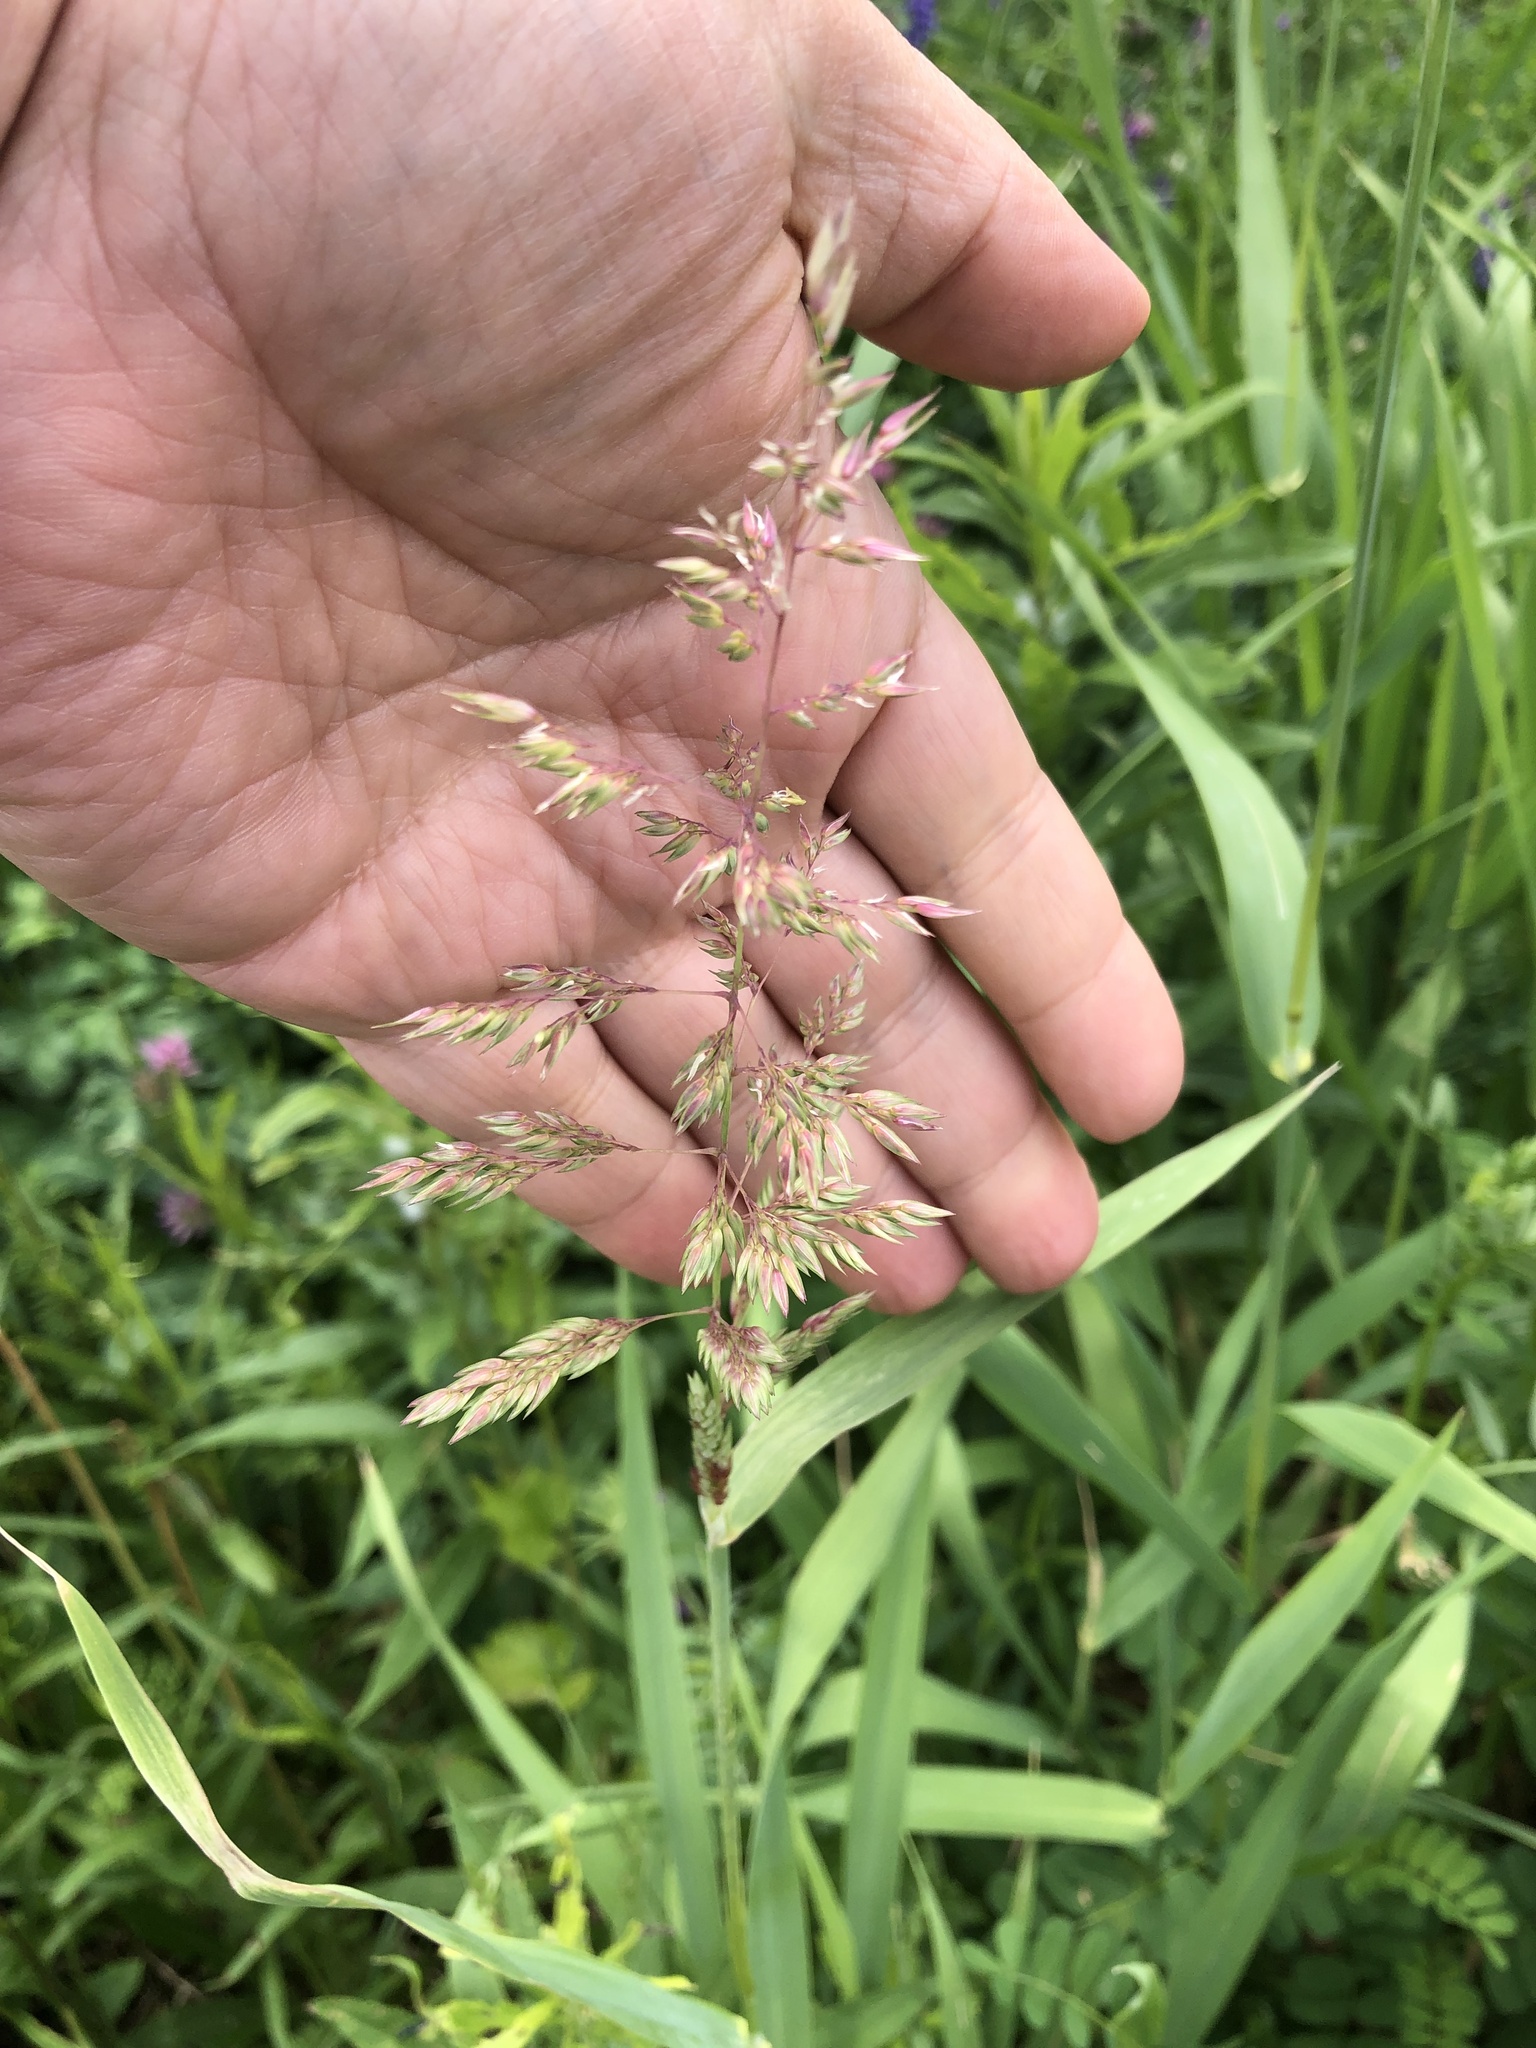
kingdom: Plantae
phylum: Tracheophyta
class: Liliopsida
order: Poales
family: Poaceae
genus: Phalaris
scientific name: Phalaris arundinacea
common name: Reed canary-grass
